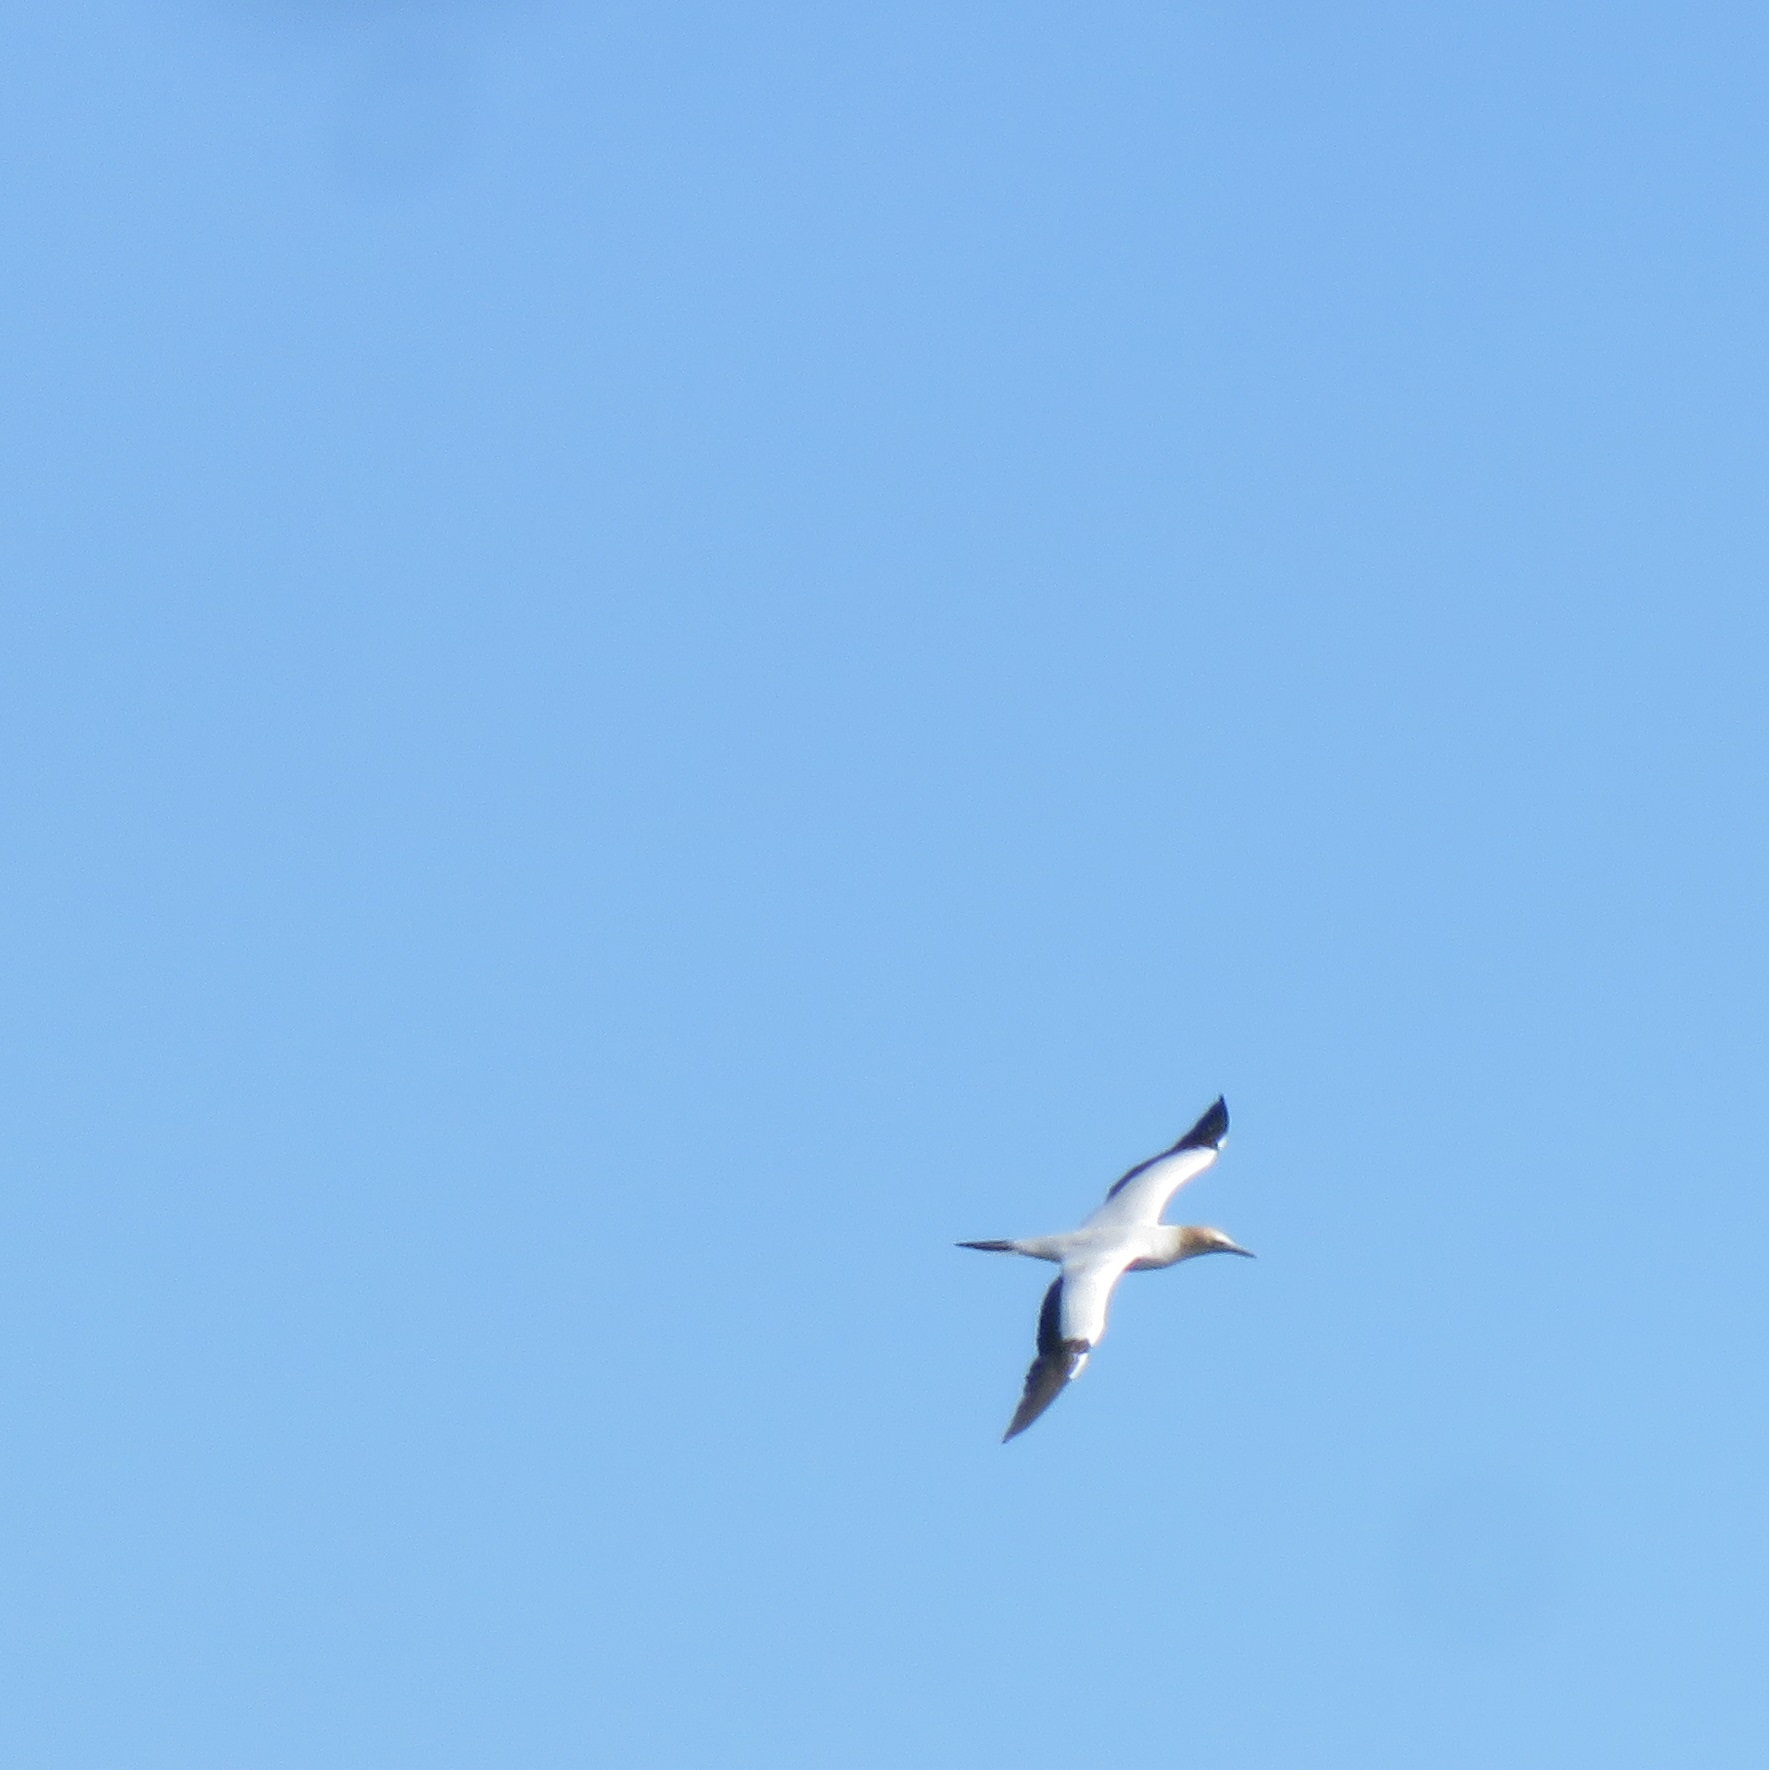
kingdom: Animalia
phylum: Chordata
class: Aves
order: Suliformes
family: Sulidae
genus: Morus
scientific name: Morus serrator
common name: Australasian gannet
